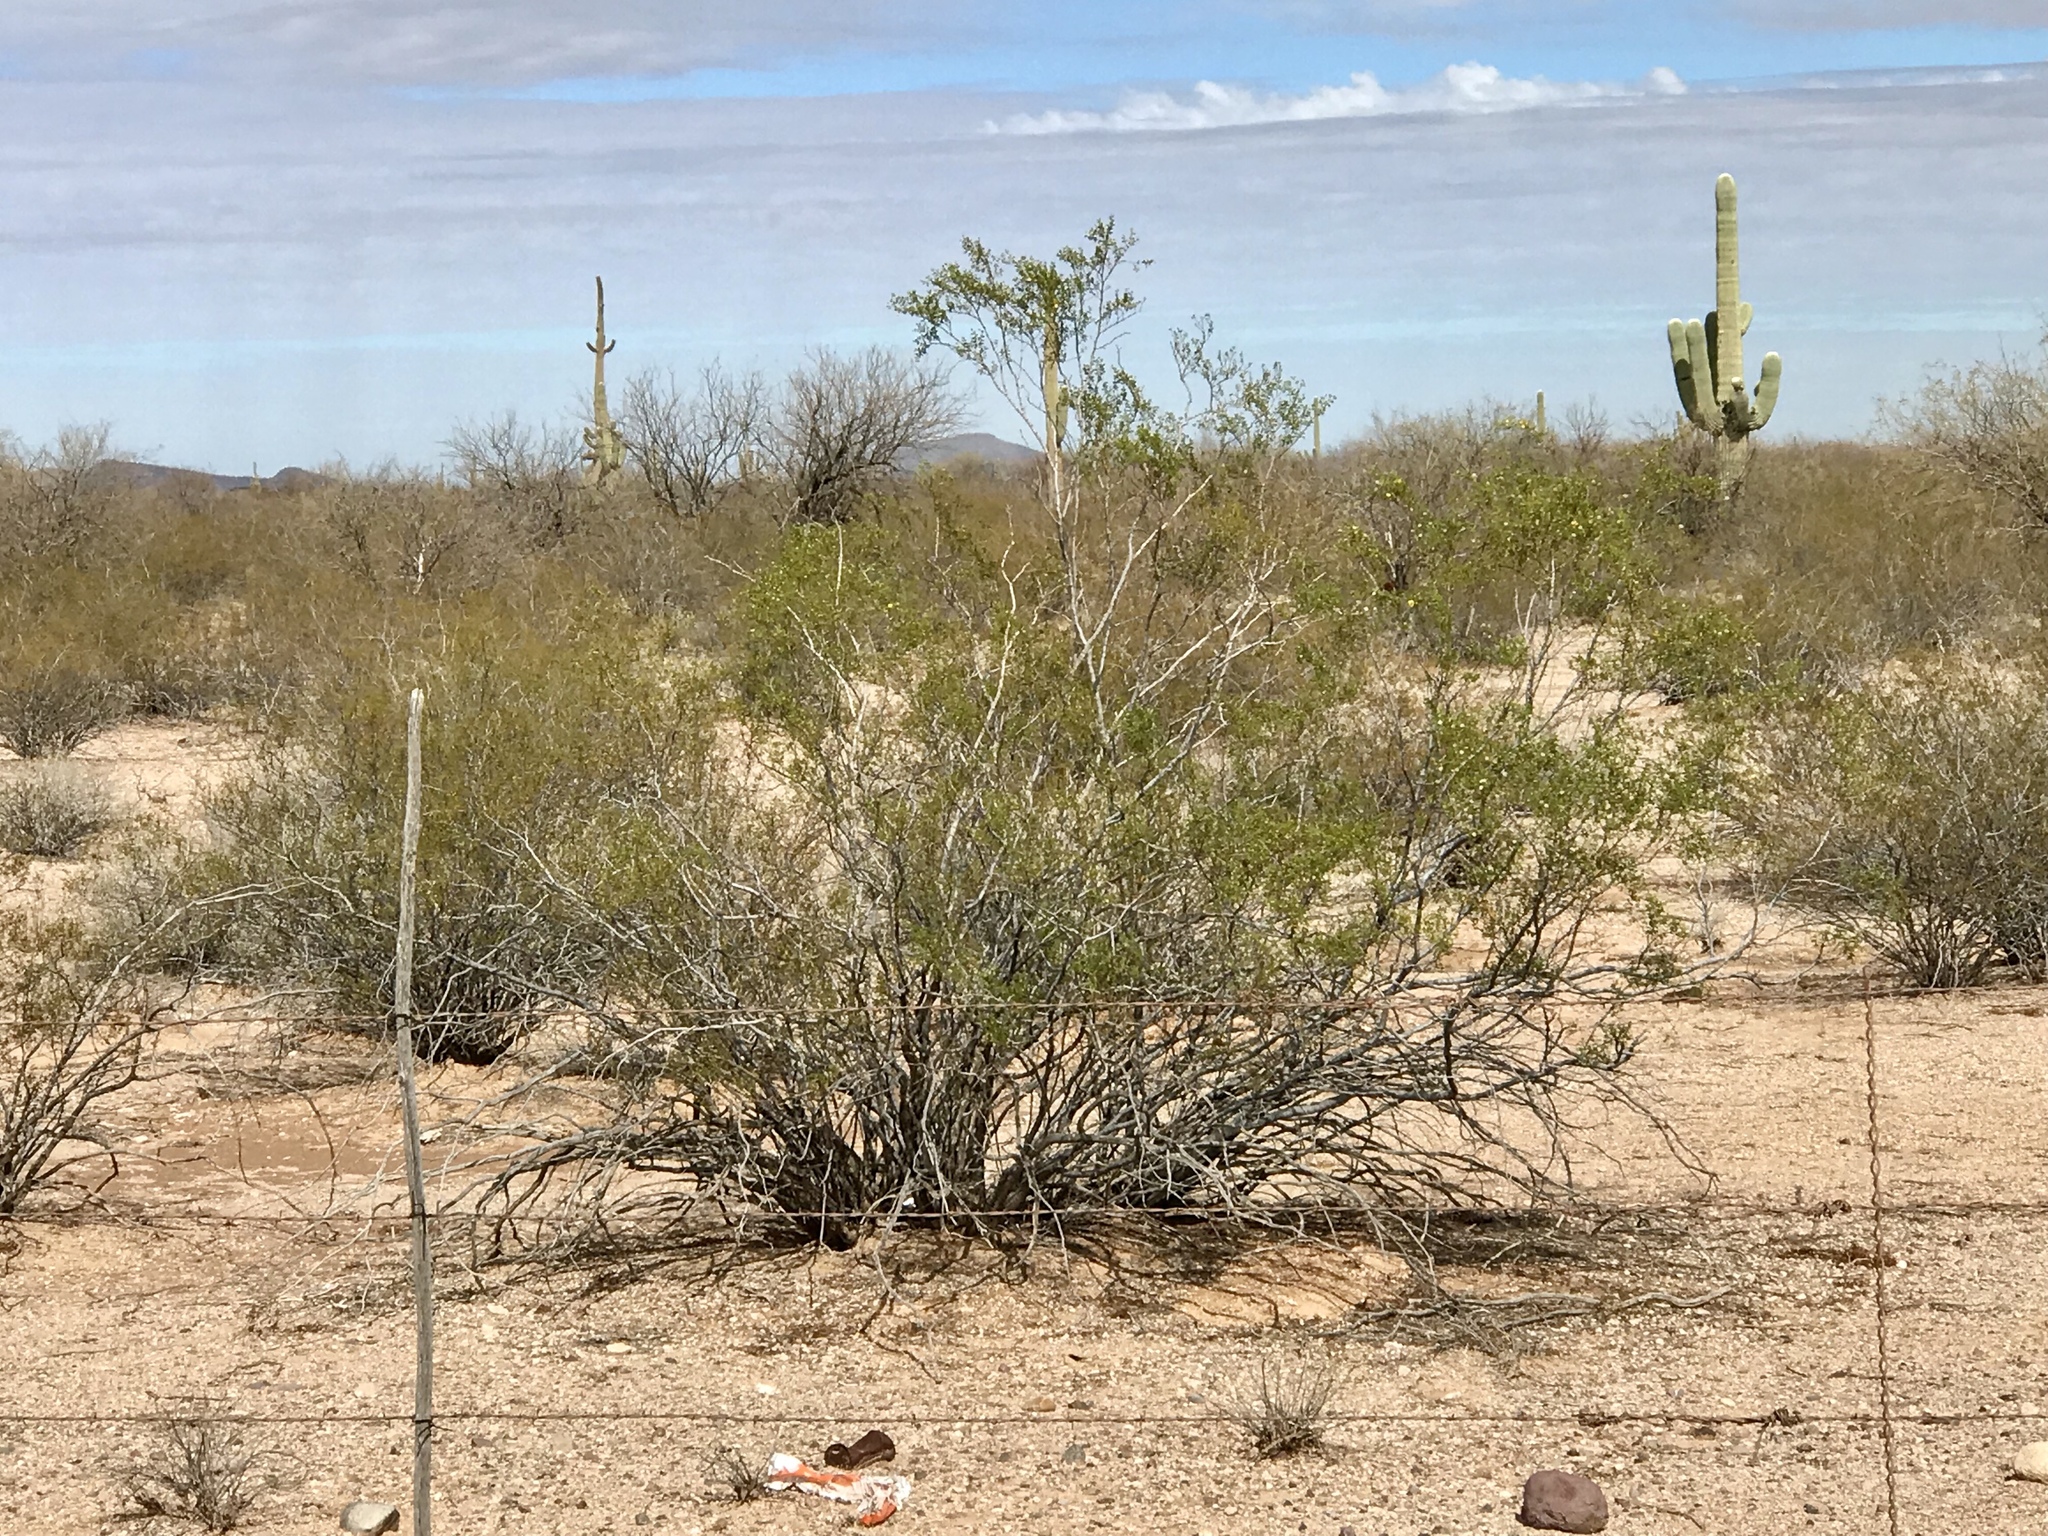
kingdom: Plantae
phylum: Tracheophyta
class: Magnoliopsida
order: Zygophyllales
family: Zygophyllaceae
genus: Larrea
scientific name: Larrea tridentata
